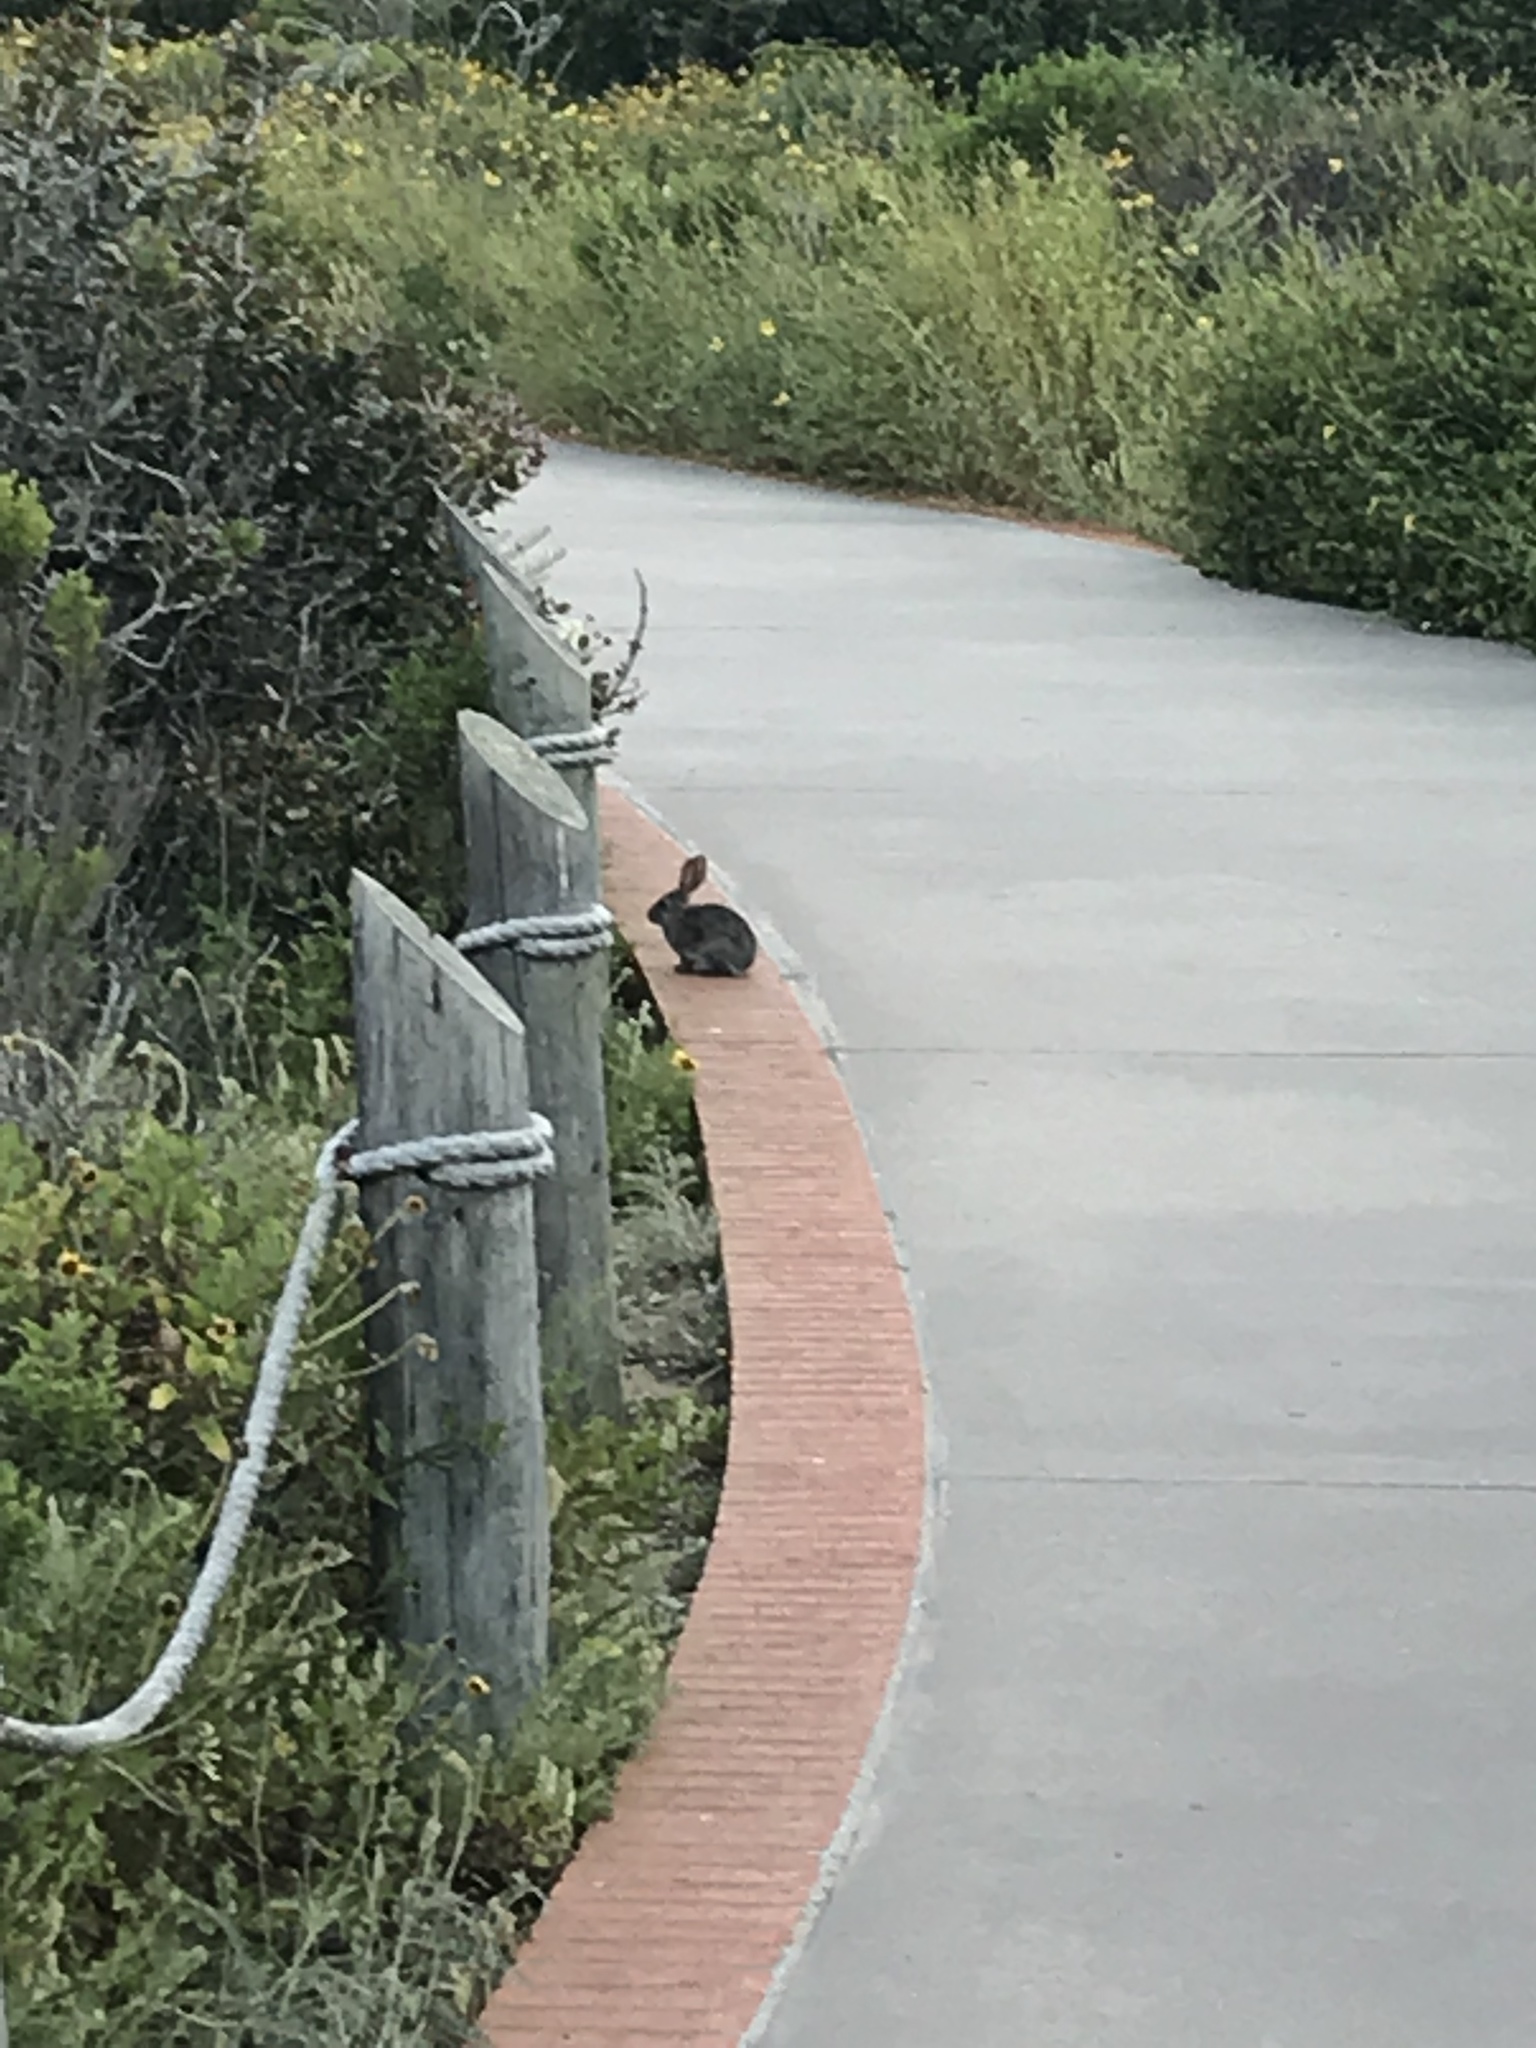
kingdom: Animalia
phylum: Chordata
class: Mammalia
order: Lagomorpha
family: Leporidae
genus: Sylvilagus
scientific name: Sylvilagus bachmani
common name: Brush rabbit
